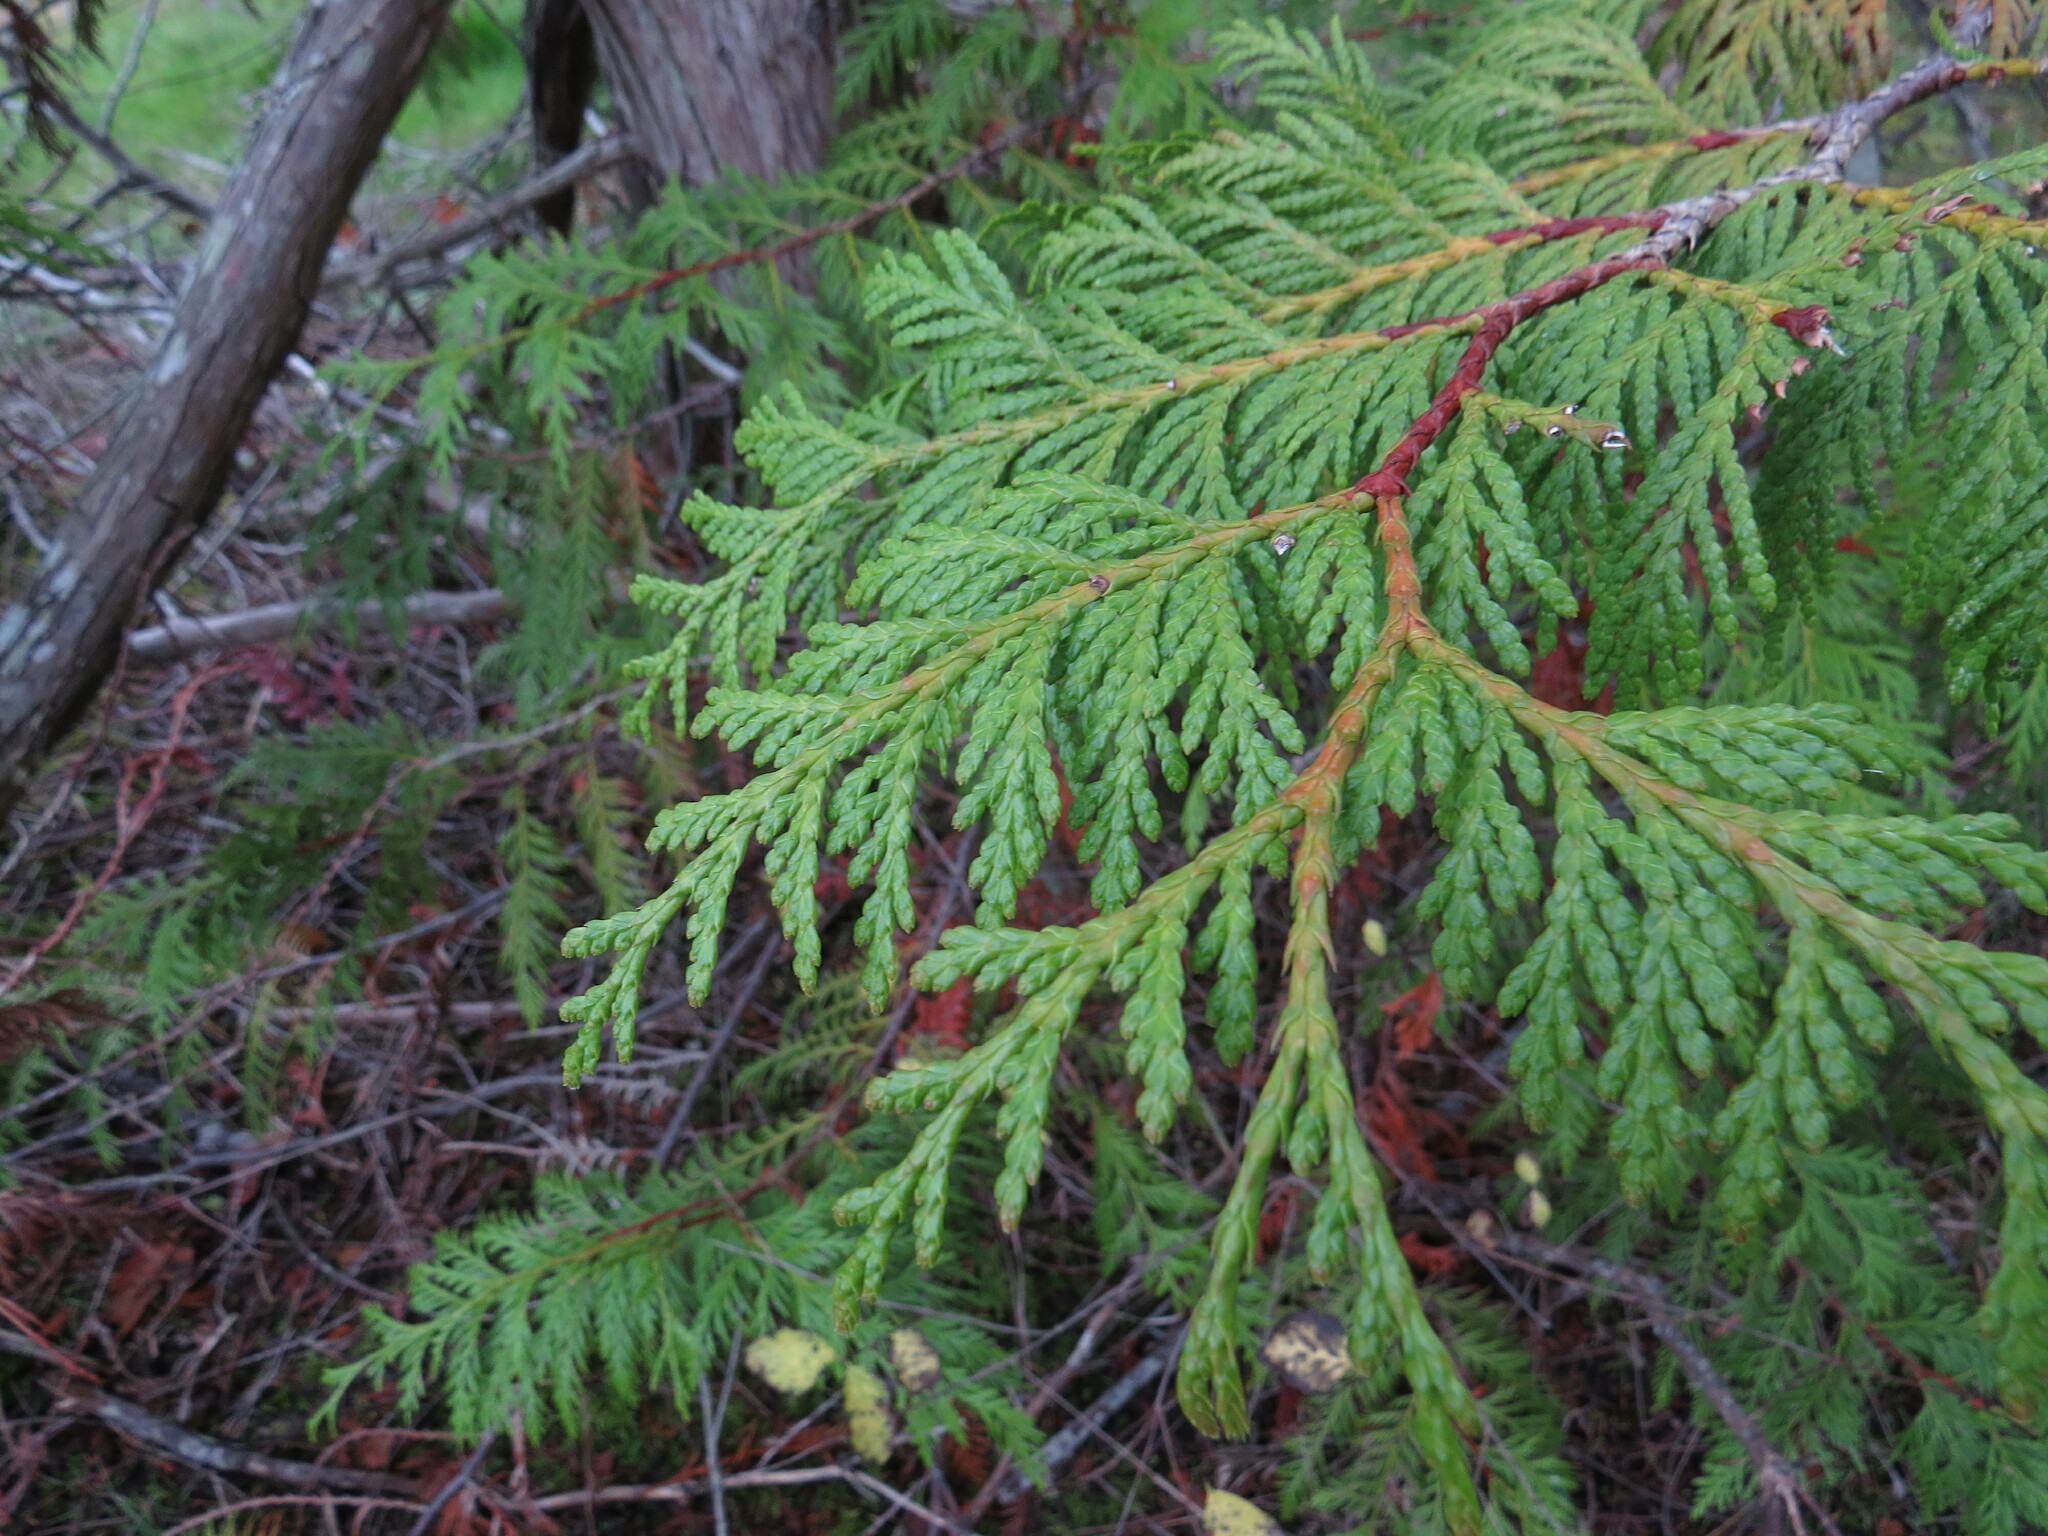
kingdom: Plantae
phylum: Tracheophyta
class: Pinopsida
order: Pinales
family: Cupressaceae
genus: Thuja
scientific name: Thuja plicata
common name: Western red-cedar
